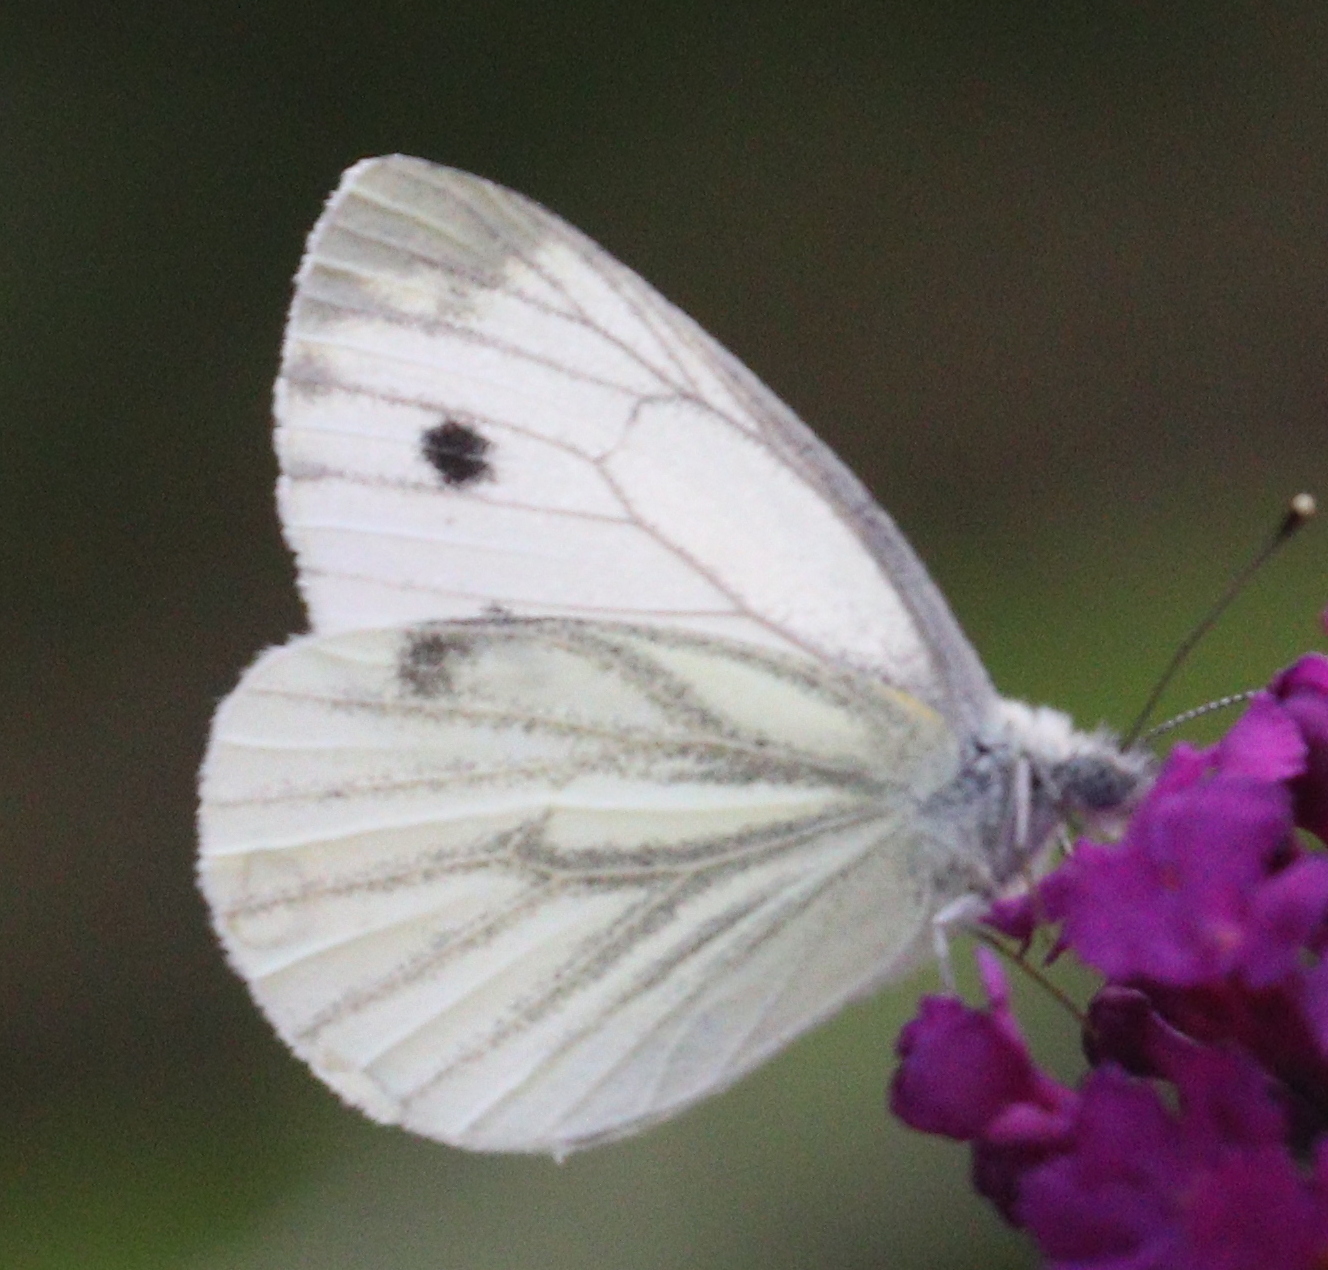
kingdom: Animalia
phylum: Arthropoda
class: Insecta
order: Lepidoptera
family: Pieridae
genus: Pieris
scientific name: Pieris napi
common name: Green-veined white
